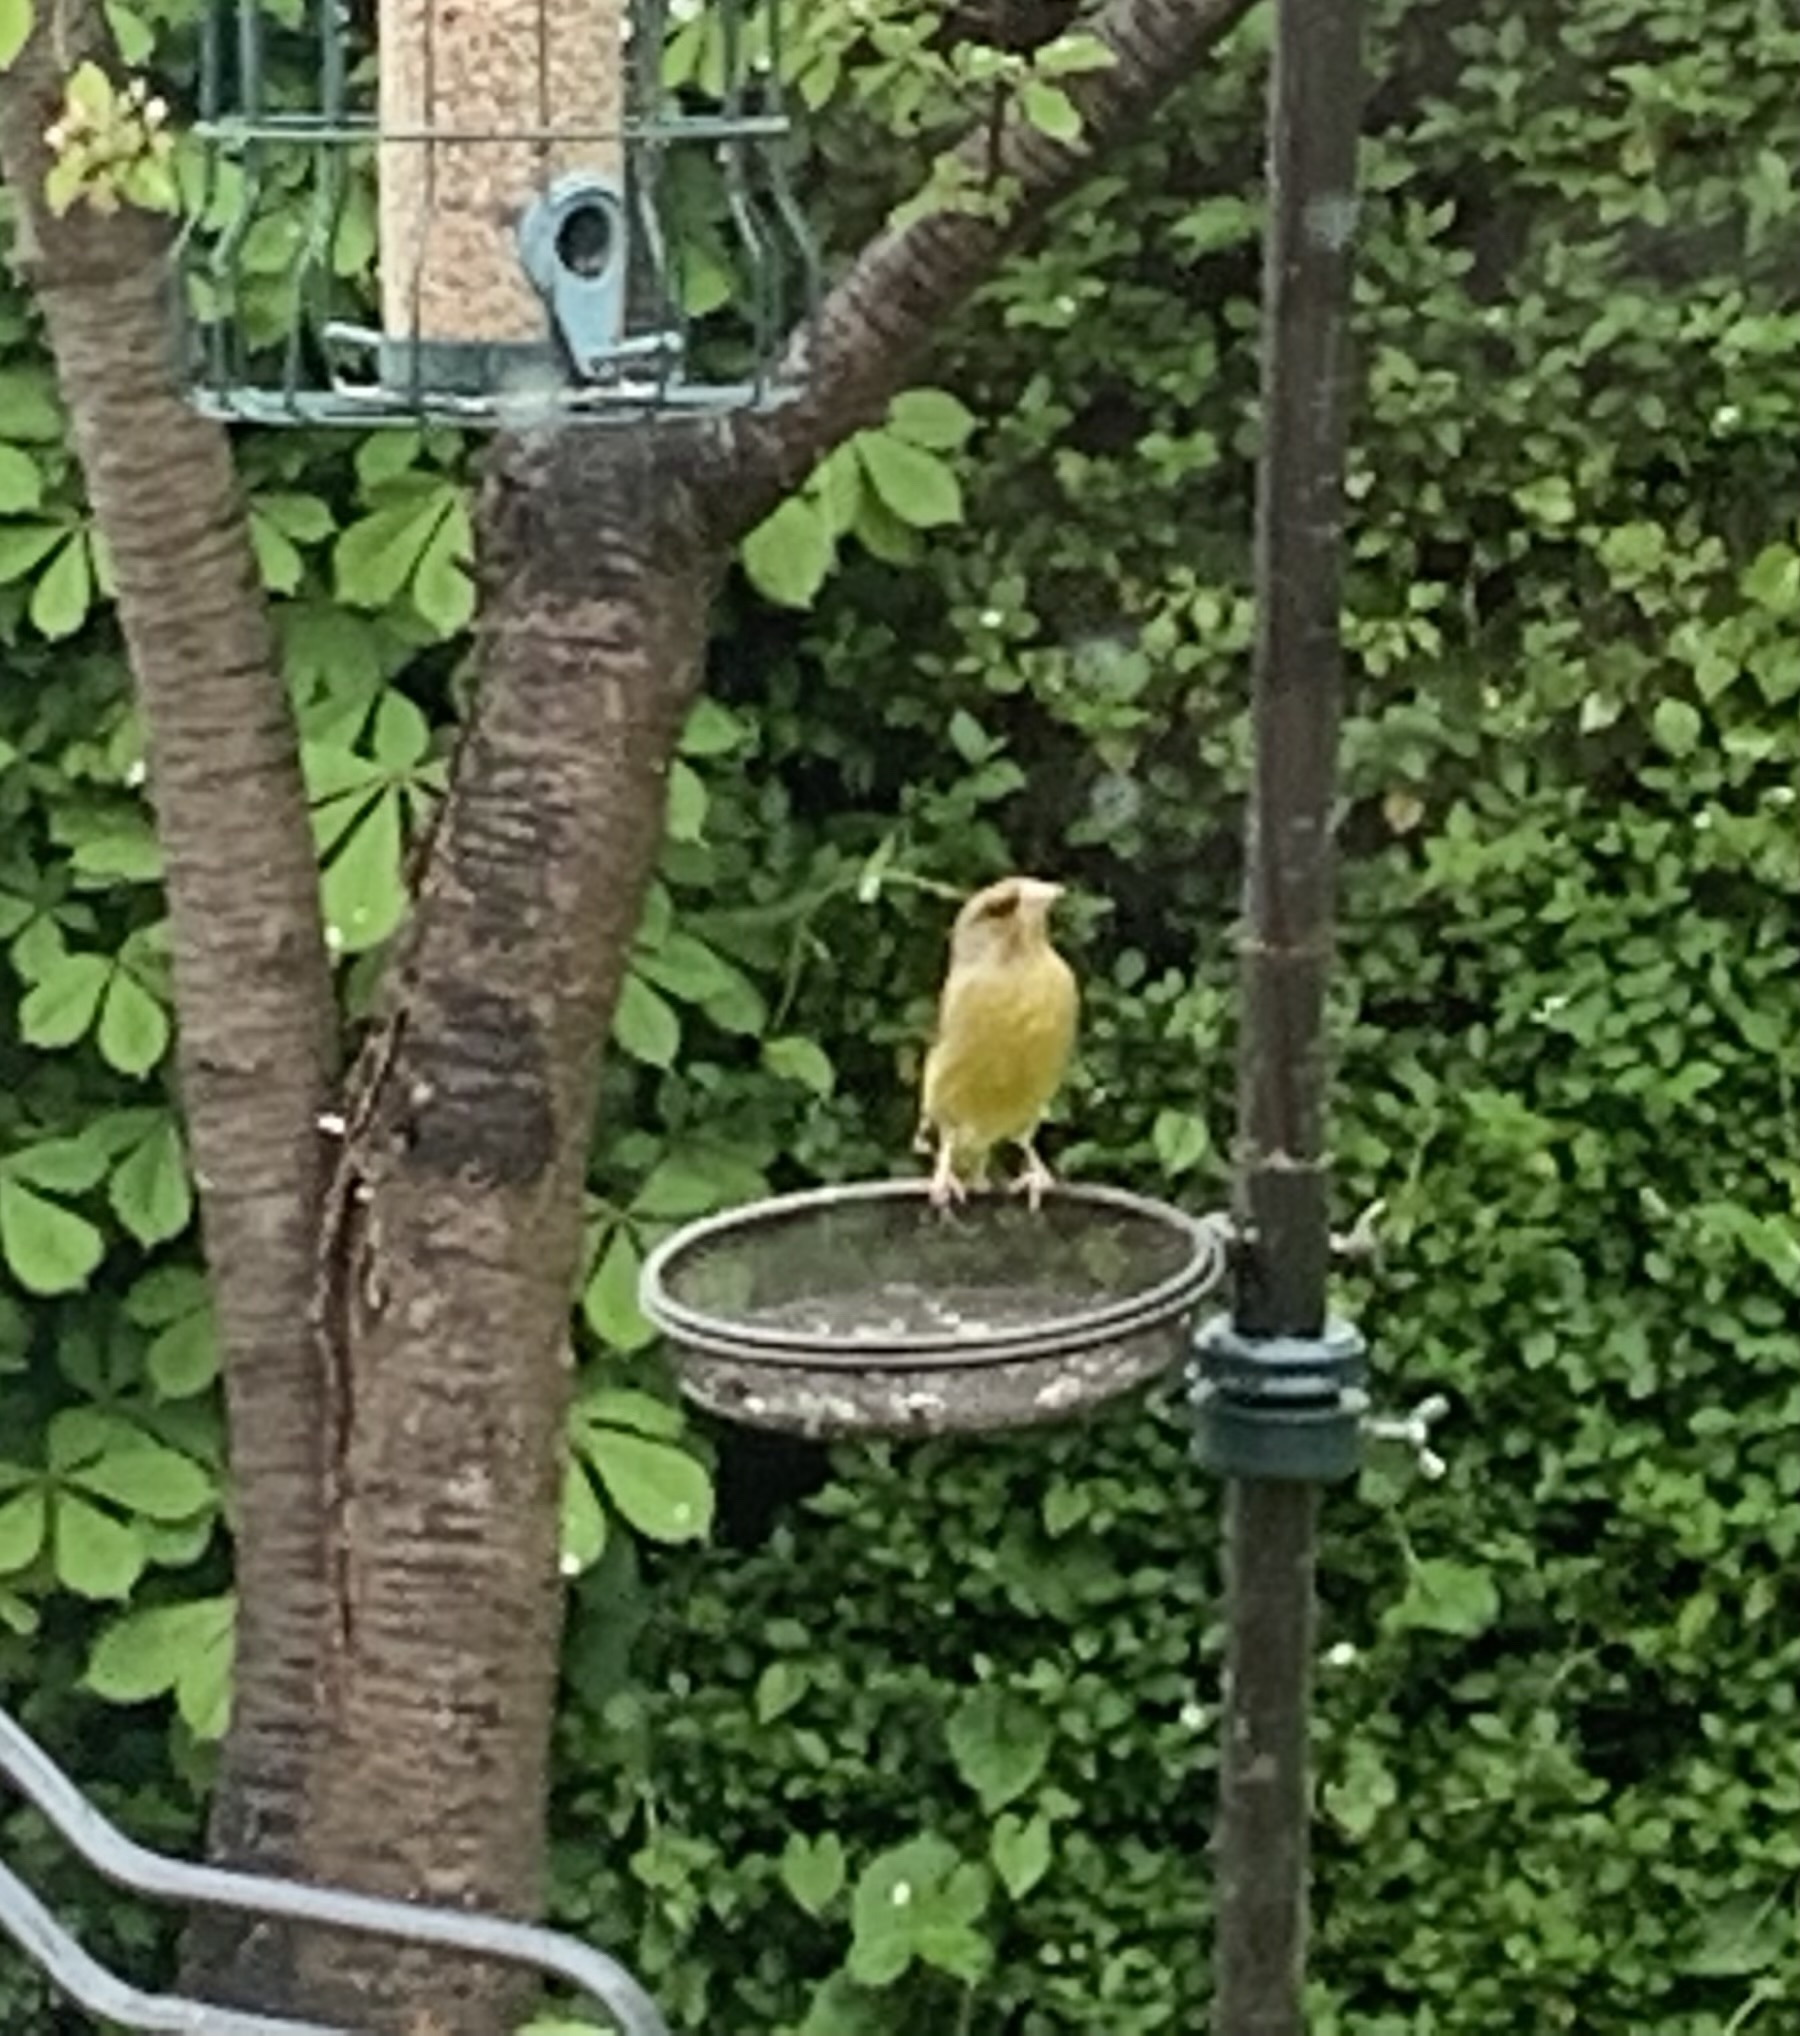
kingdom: Plantae
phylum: Tracheophyta
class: Liliopsida
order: Poales
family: Poaceae
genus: Chloris
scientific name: Chloris chloris
